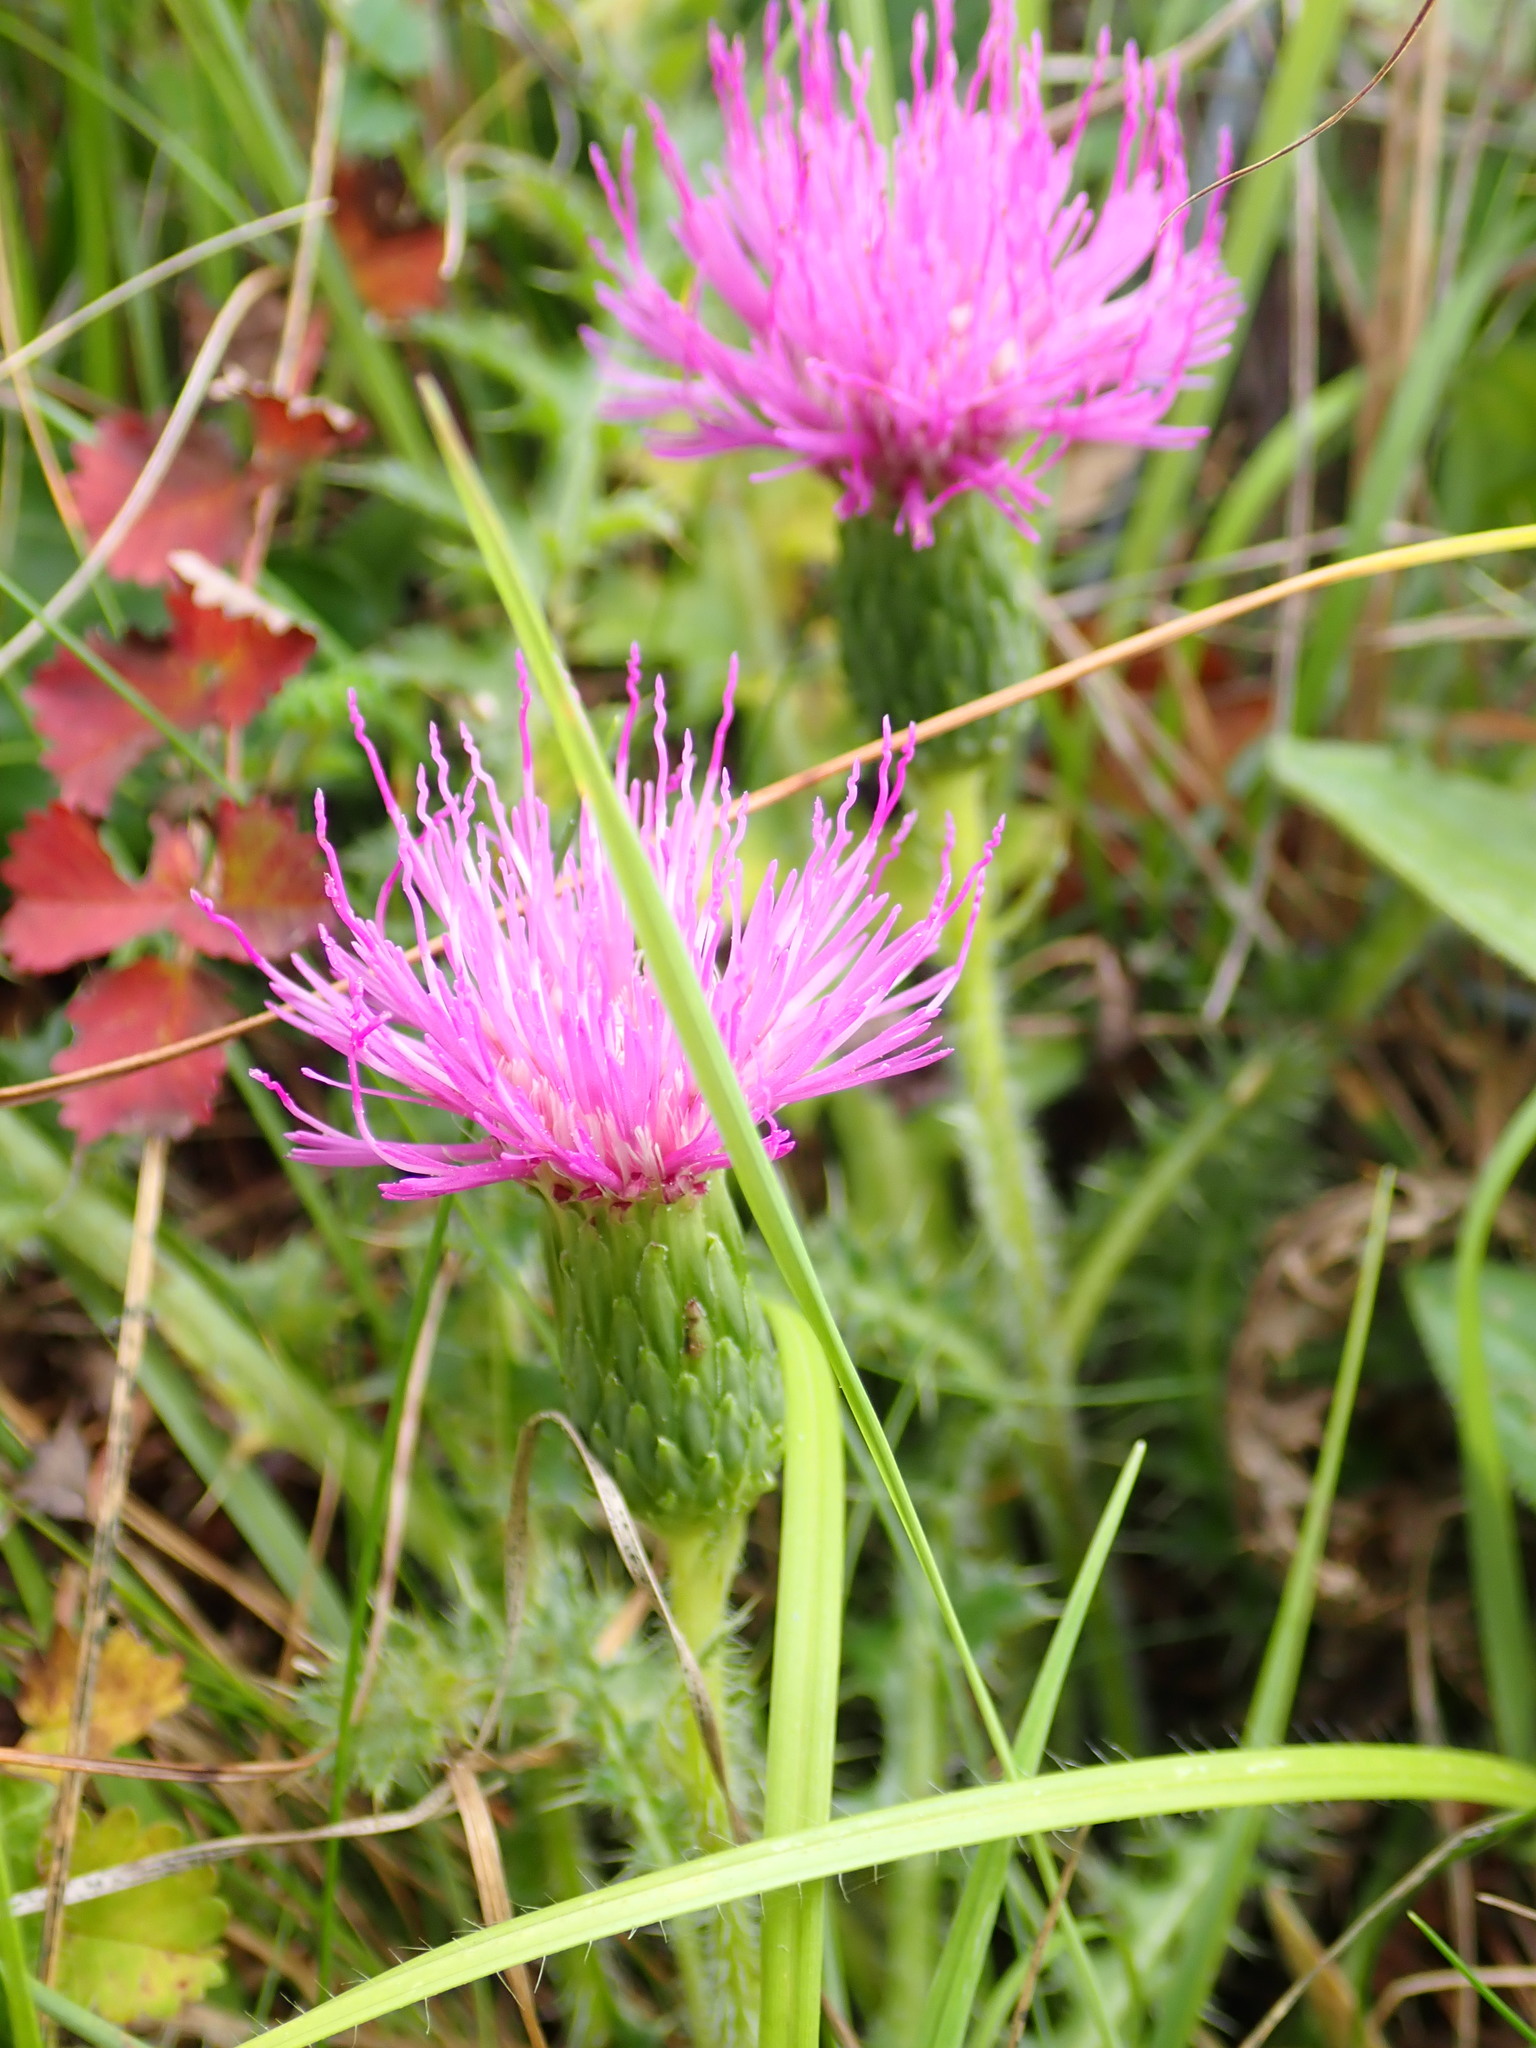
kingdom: Plantae
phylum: Tracheophyta
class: Magnoliopsida
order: Asterales
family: Asteraceae
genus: Cirsium
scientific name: Cirsium acaulon
